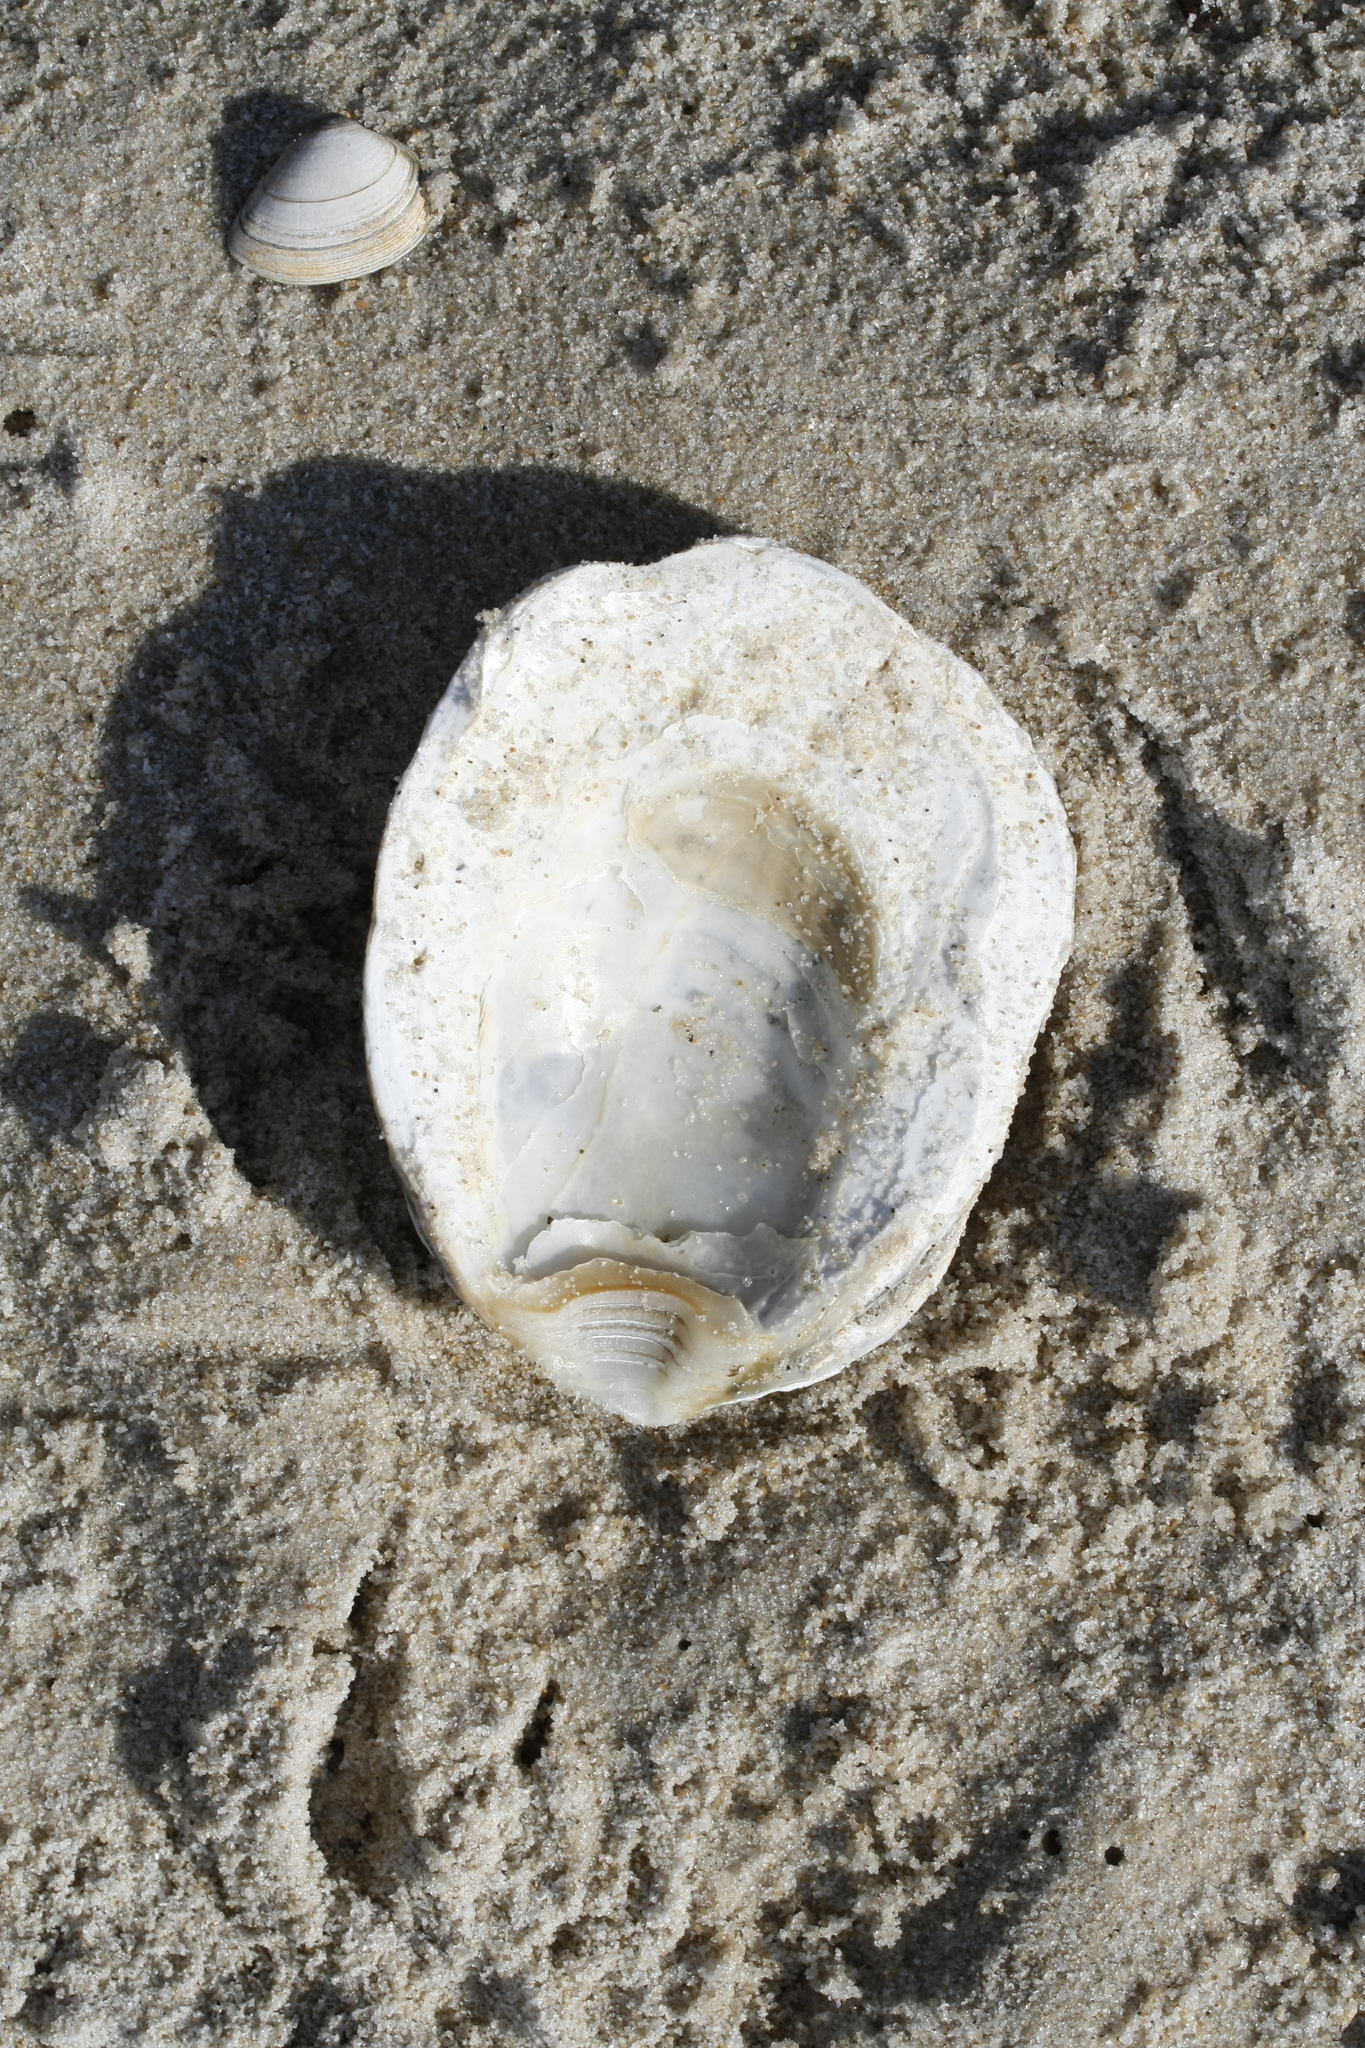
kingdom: Animalia
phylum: Mollusca
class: Bivalvia
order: Ostreida
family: Ostreidae
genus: Ostrea
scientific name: Ostrea edulis
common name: Flat oyster
